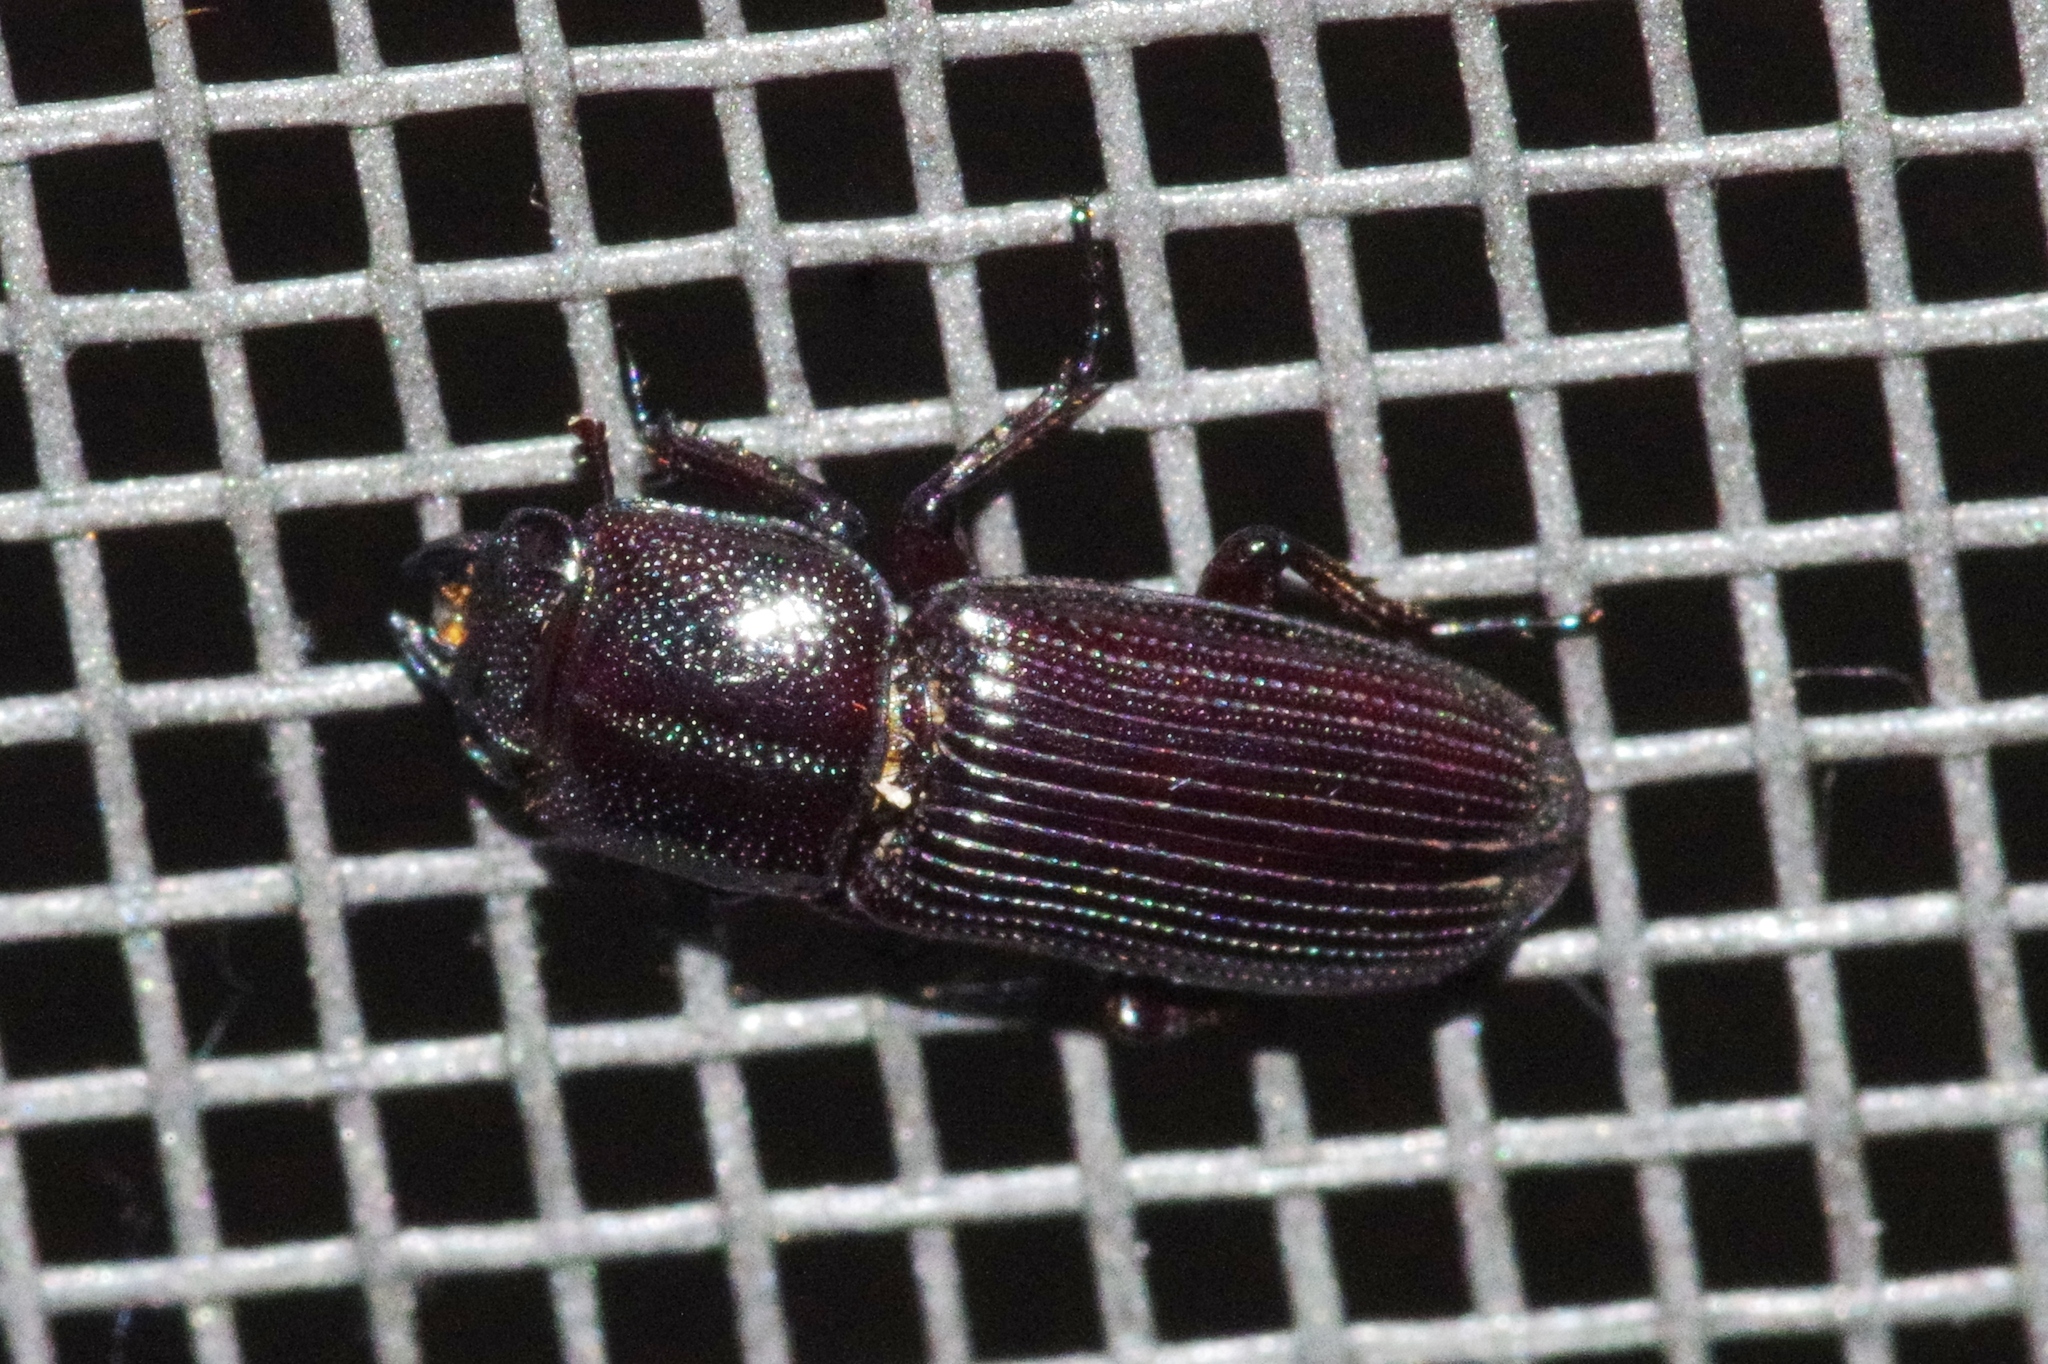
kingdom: Animalia
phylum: Arthropoda
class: Insecta
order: Coleoptera
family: Lucanidae
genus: Figulus
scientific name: Figulus punctatus
